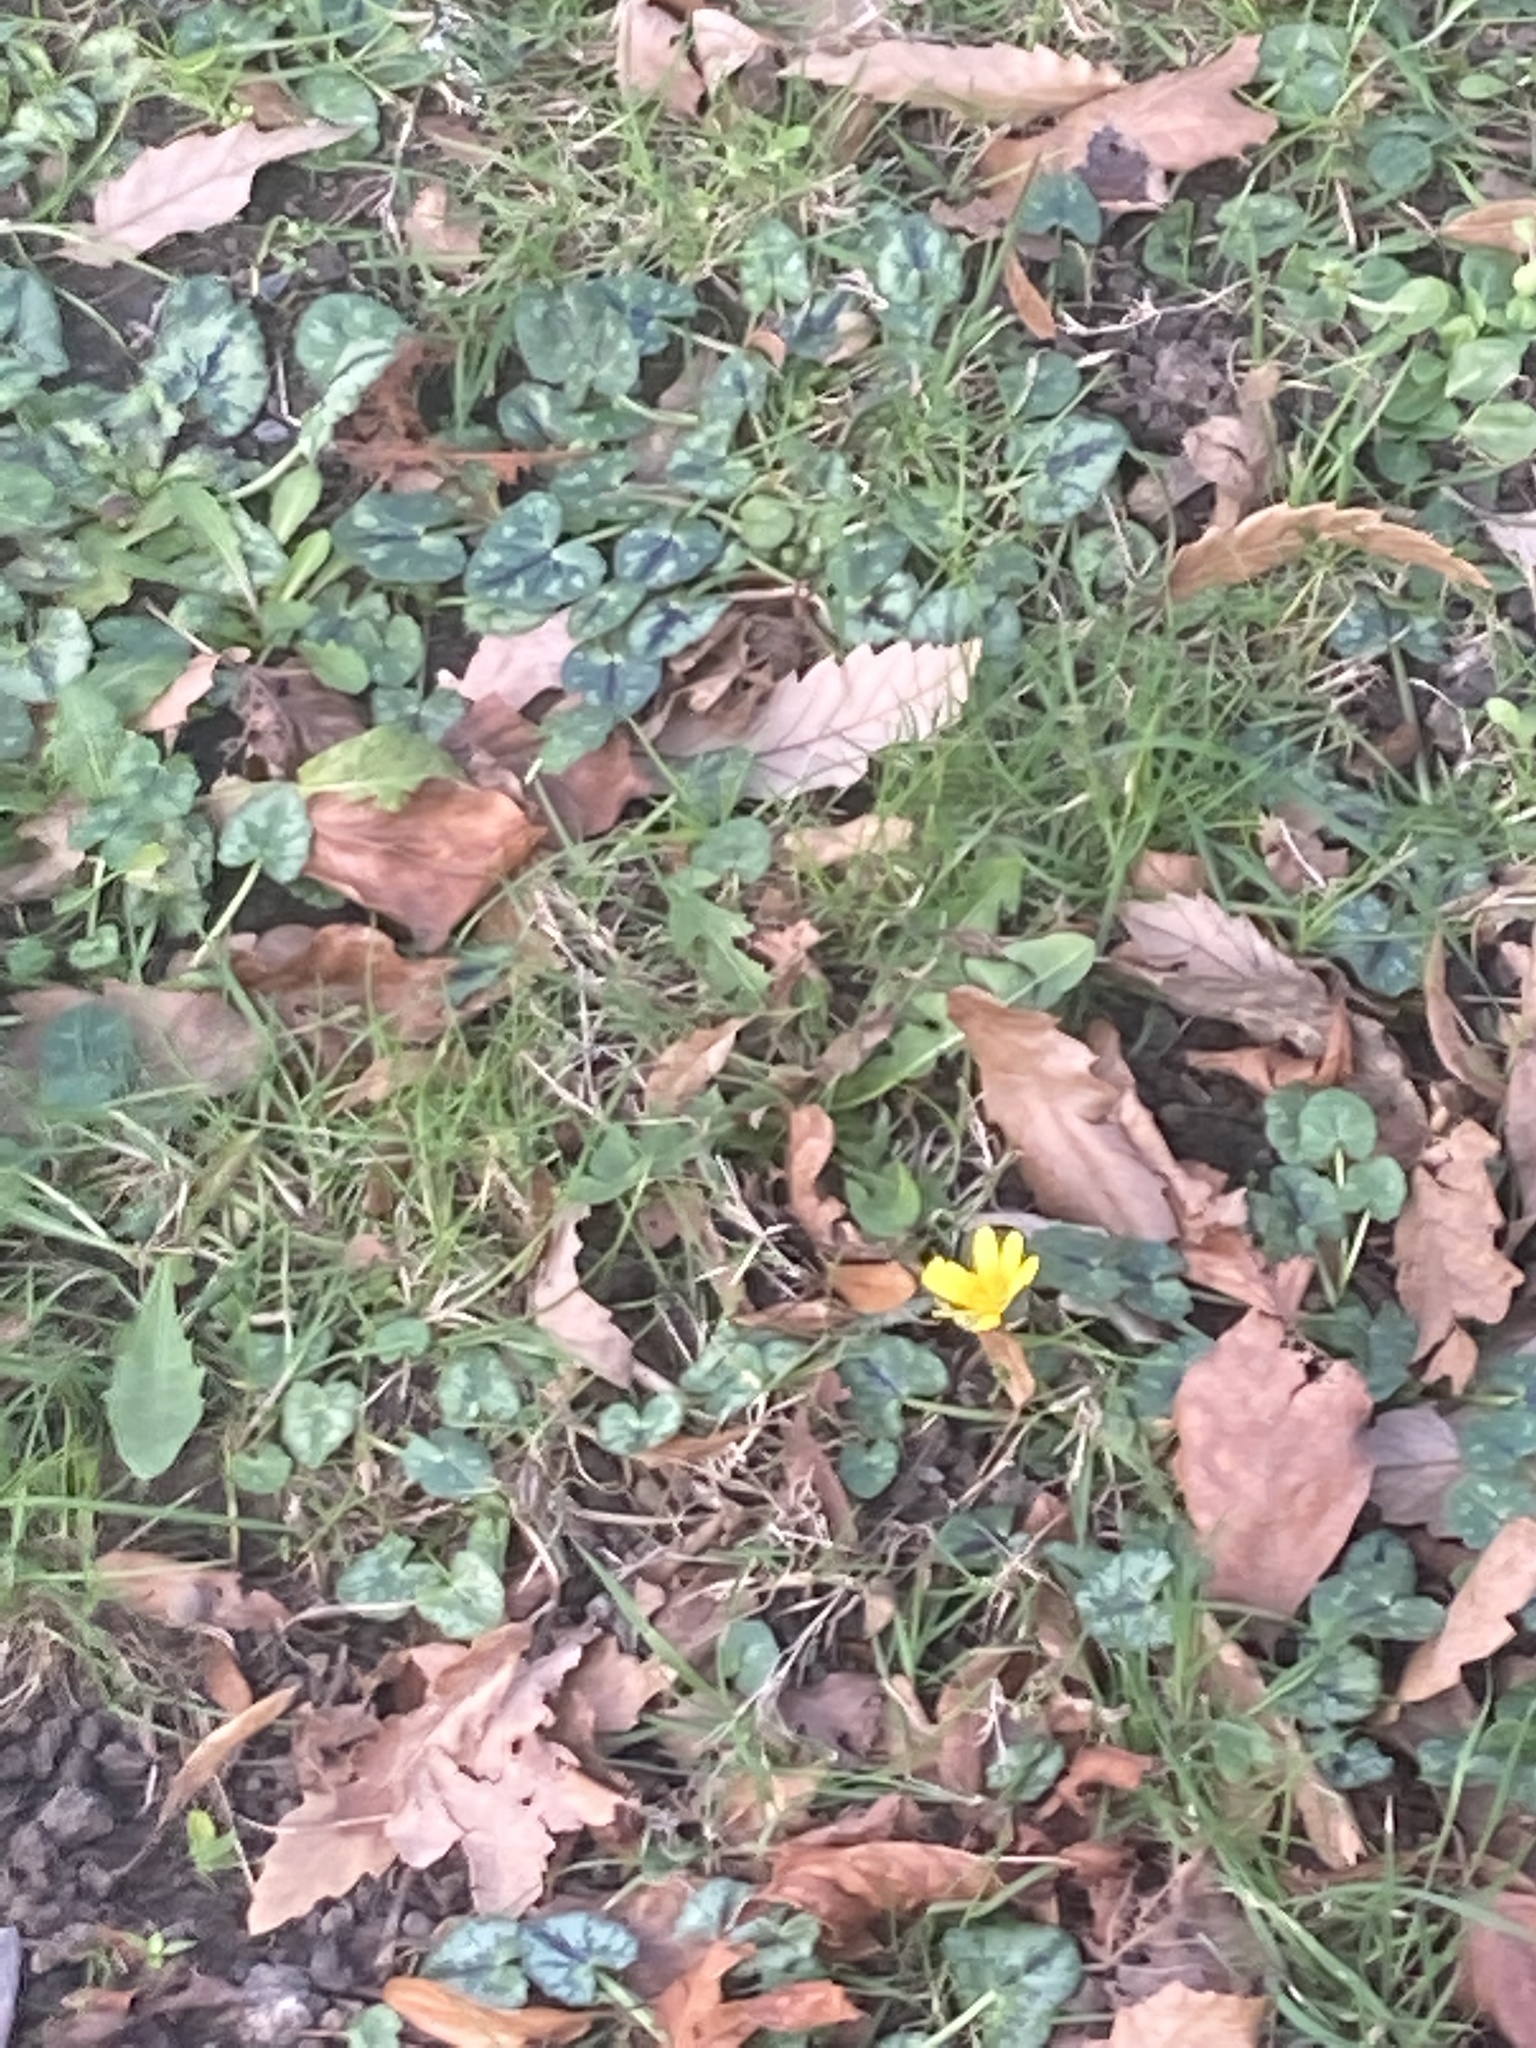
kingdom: Plantae
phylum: Tracheophyta
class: Magnoliopsida
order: Ranunculales
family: Ranunculaceae
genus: Ficaria
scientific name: Ficaria verna
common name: Lesser celandine
